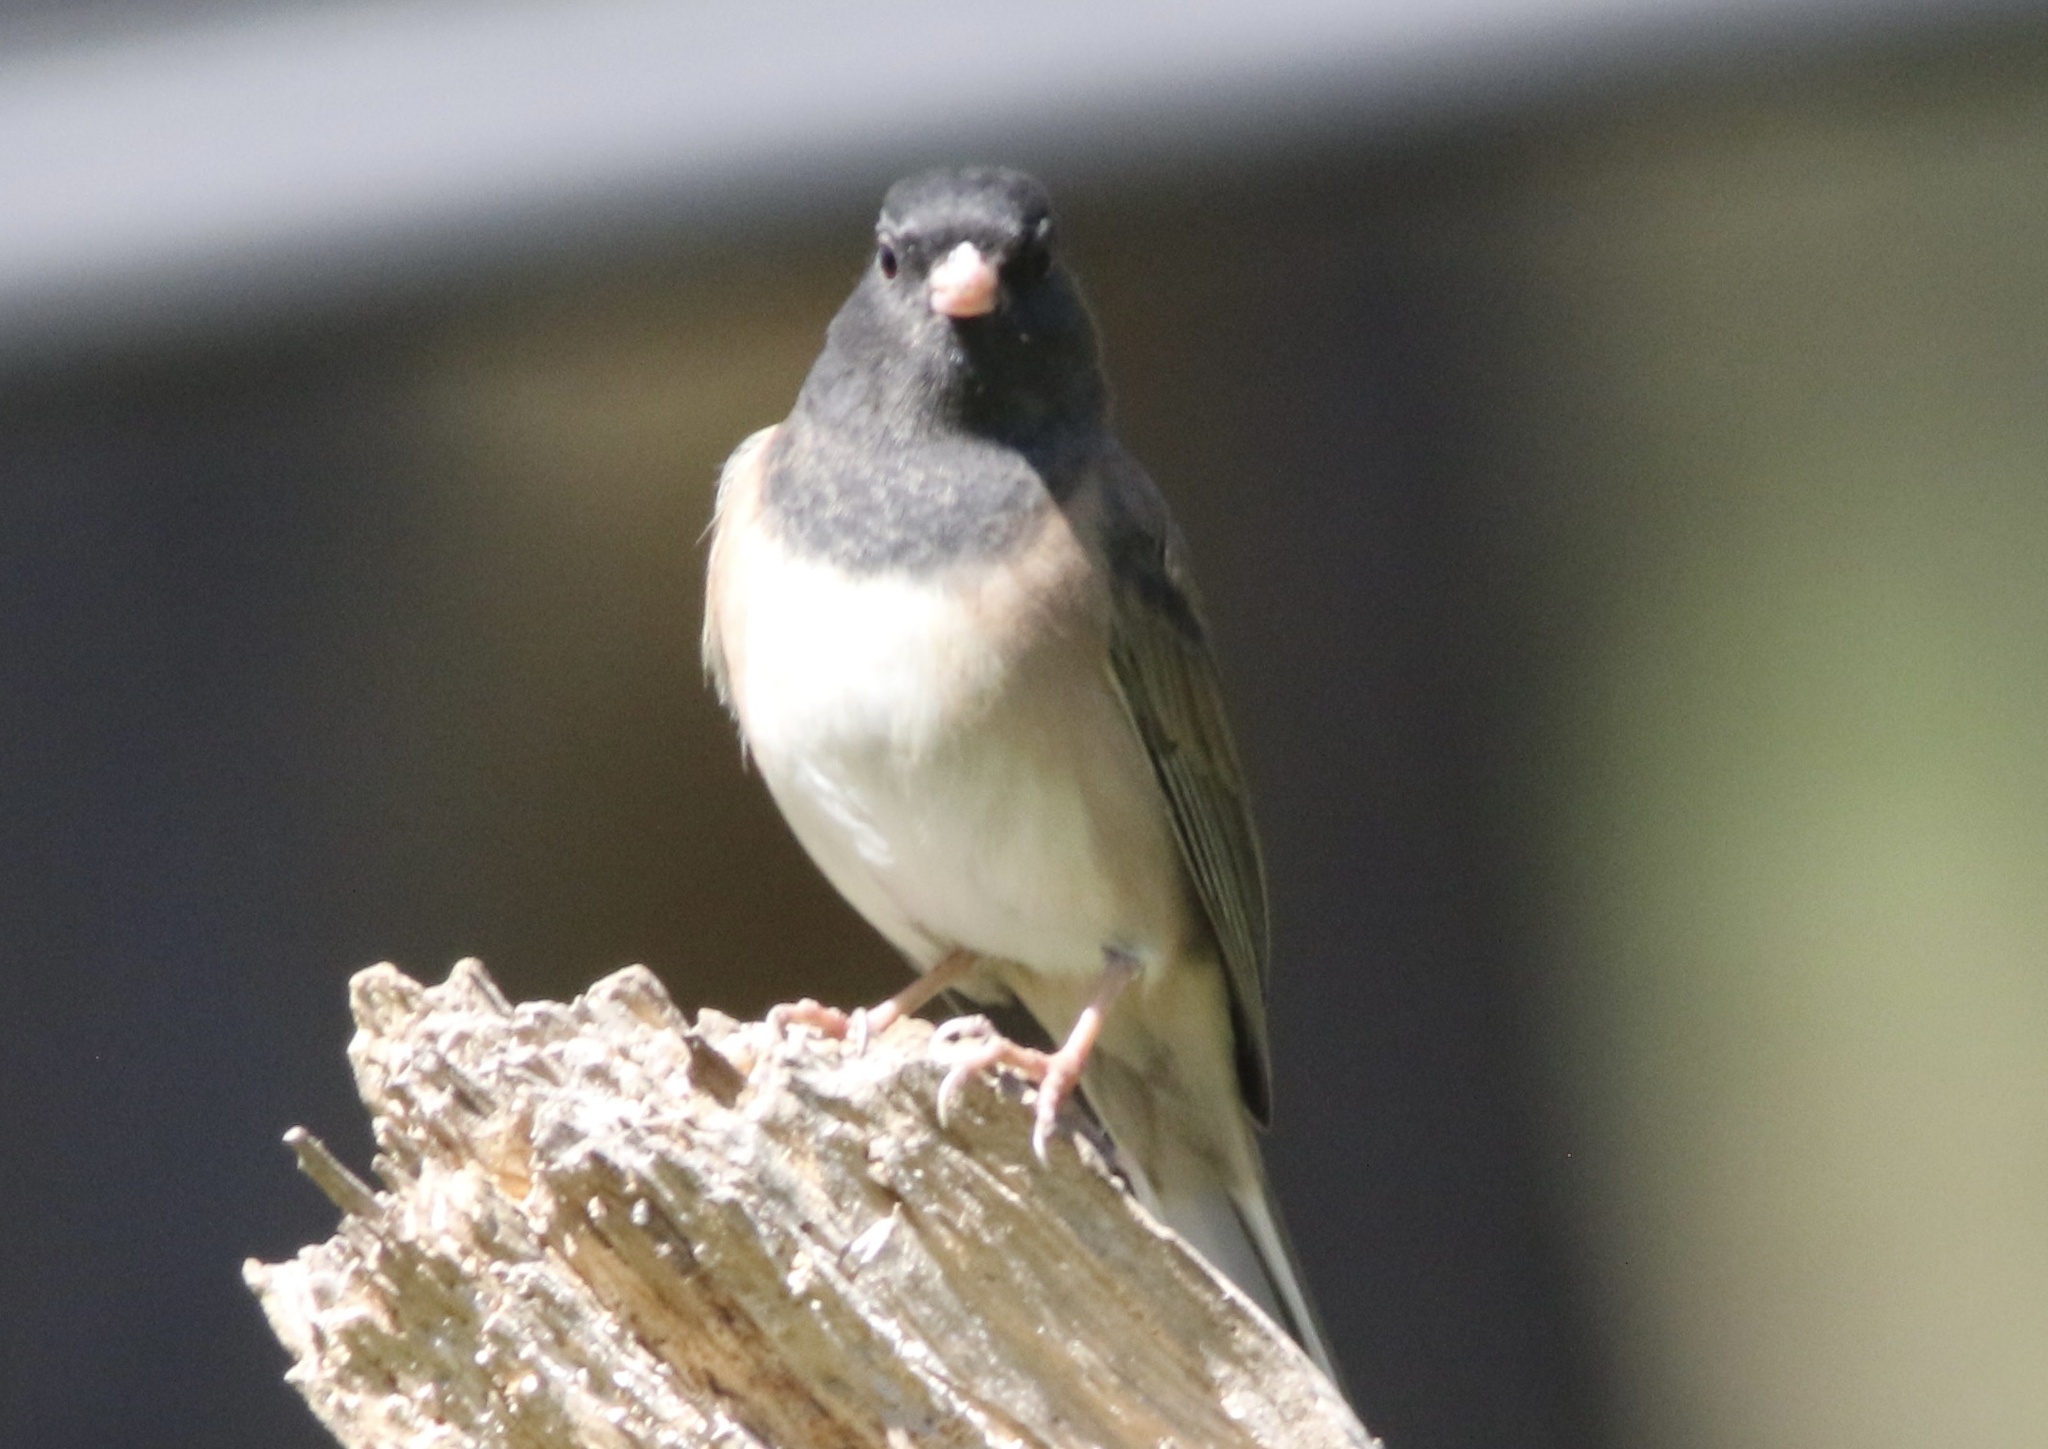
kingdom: Animalia
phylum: Chordata
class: Aves
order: Passeriformes
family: Passerellidae
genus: Junco
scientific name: Junco hyemalis
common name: Dark-eyed junco
